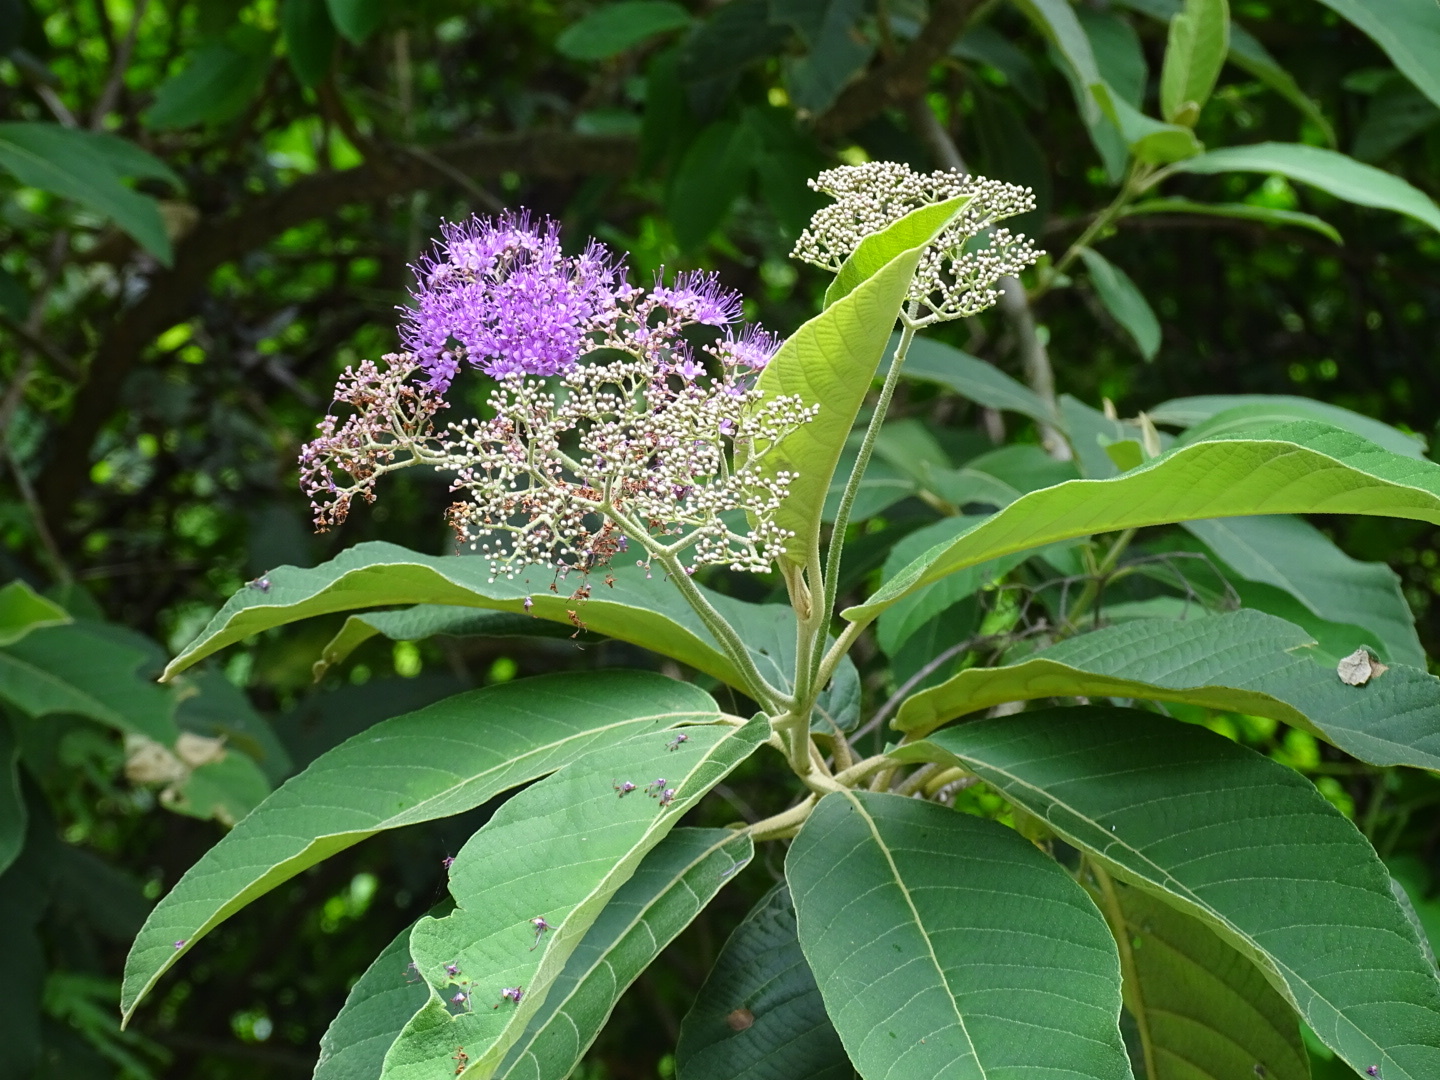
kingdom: Plantae
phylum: Tracheophyta
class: Magnoliopsida
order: Lamiales
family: Lamiaceae
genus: Callicarpa
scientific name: Callicarpa nudiflora
